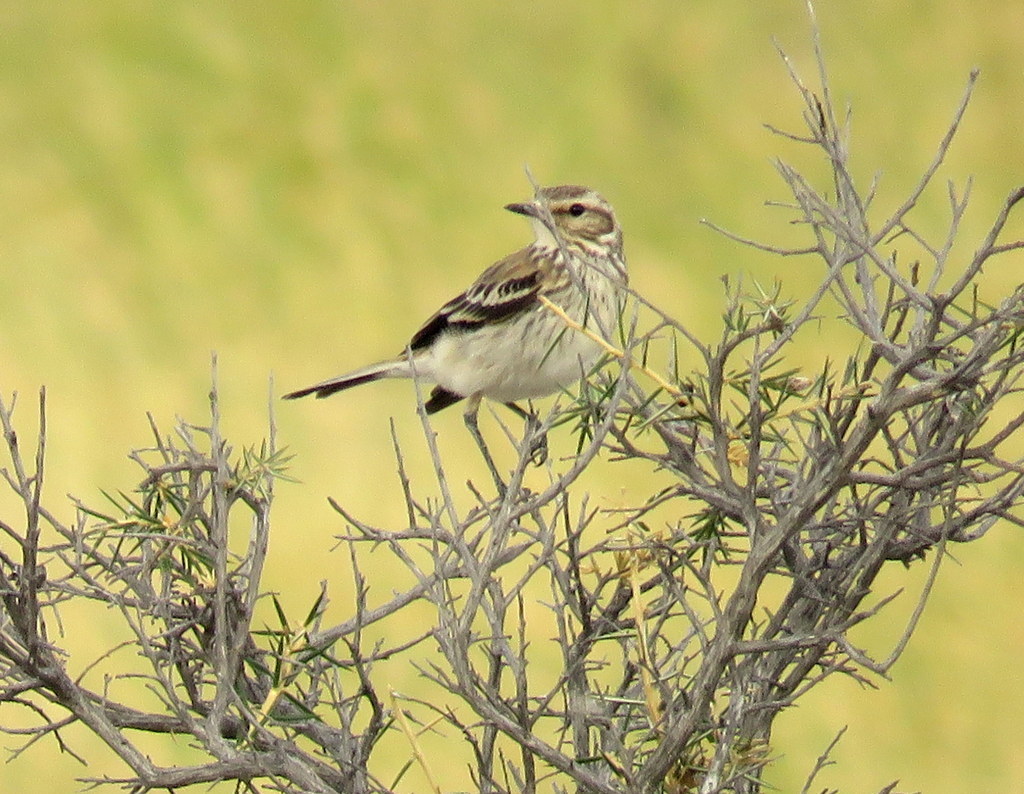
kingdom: Animalia
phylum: Chordata
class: Aves
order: Passeriformes
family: Tyrannidae
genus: Xolmis
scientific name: Xolmis rubetra
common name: Rusty-backed monjita
